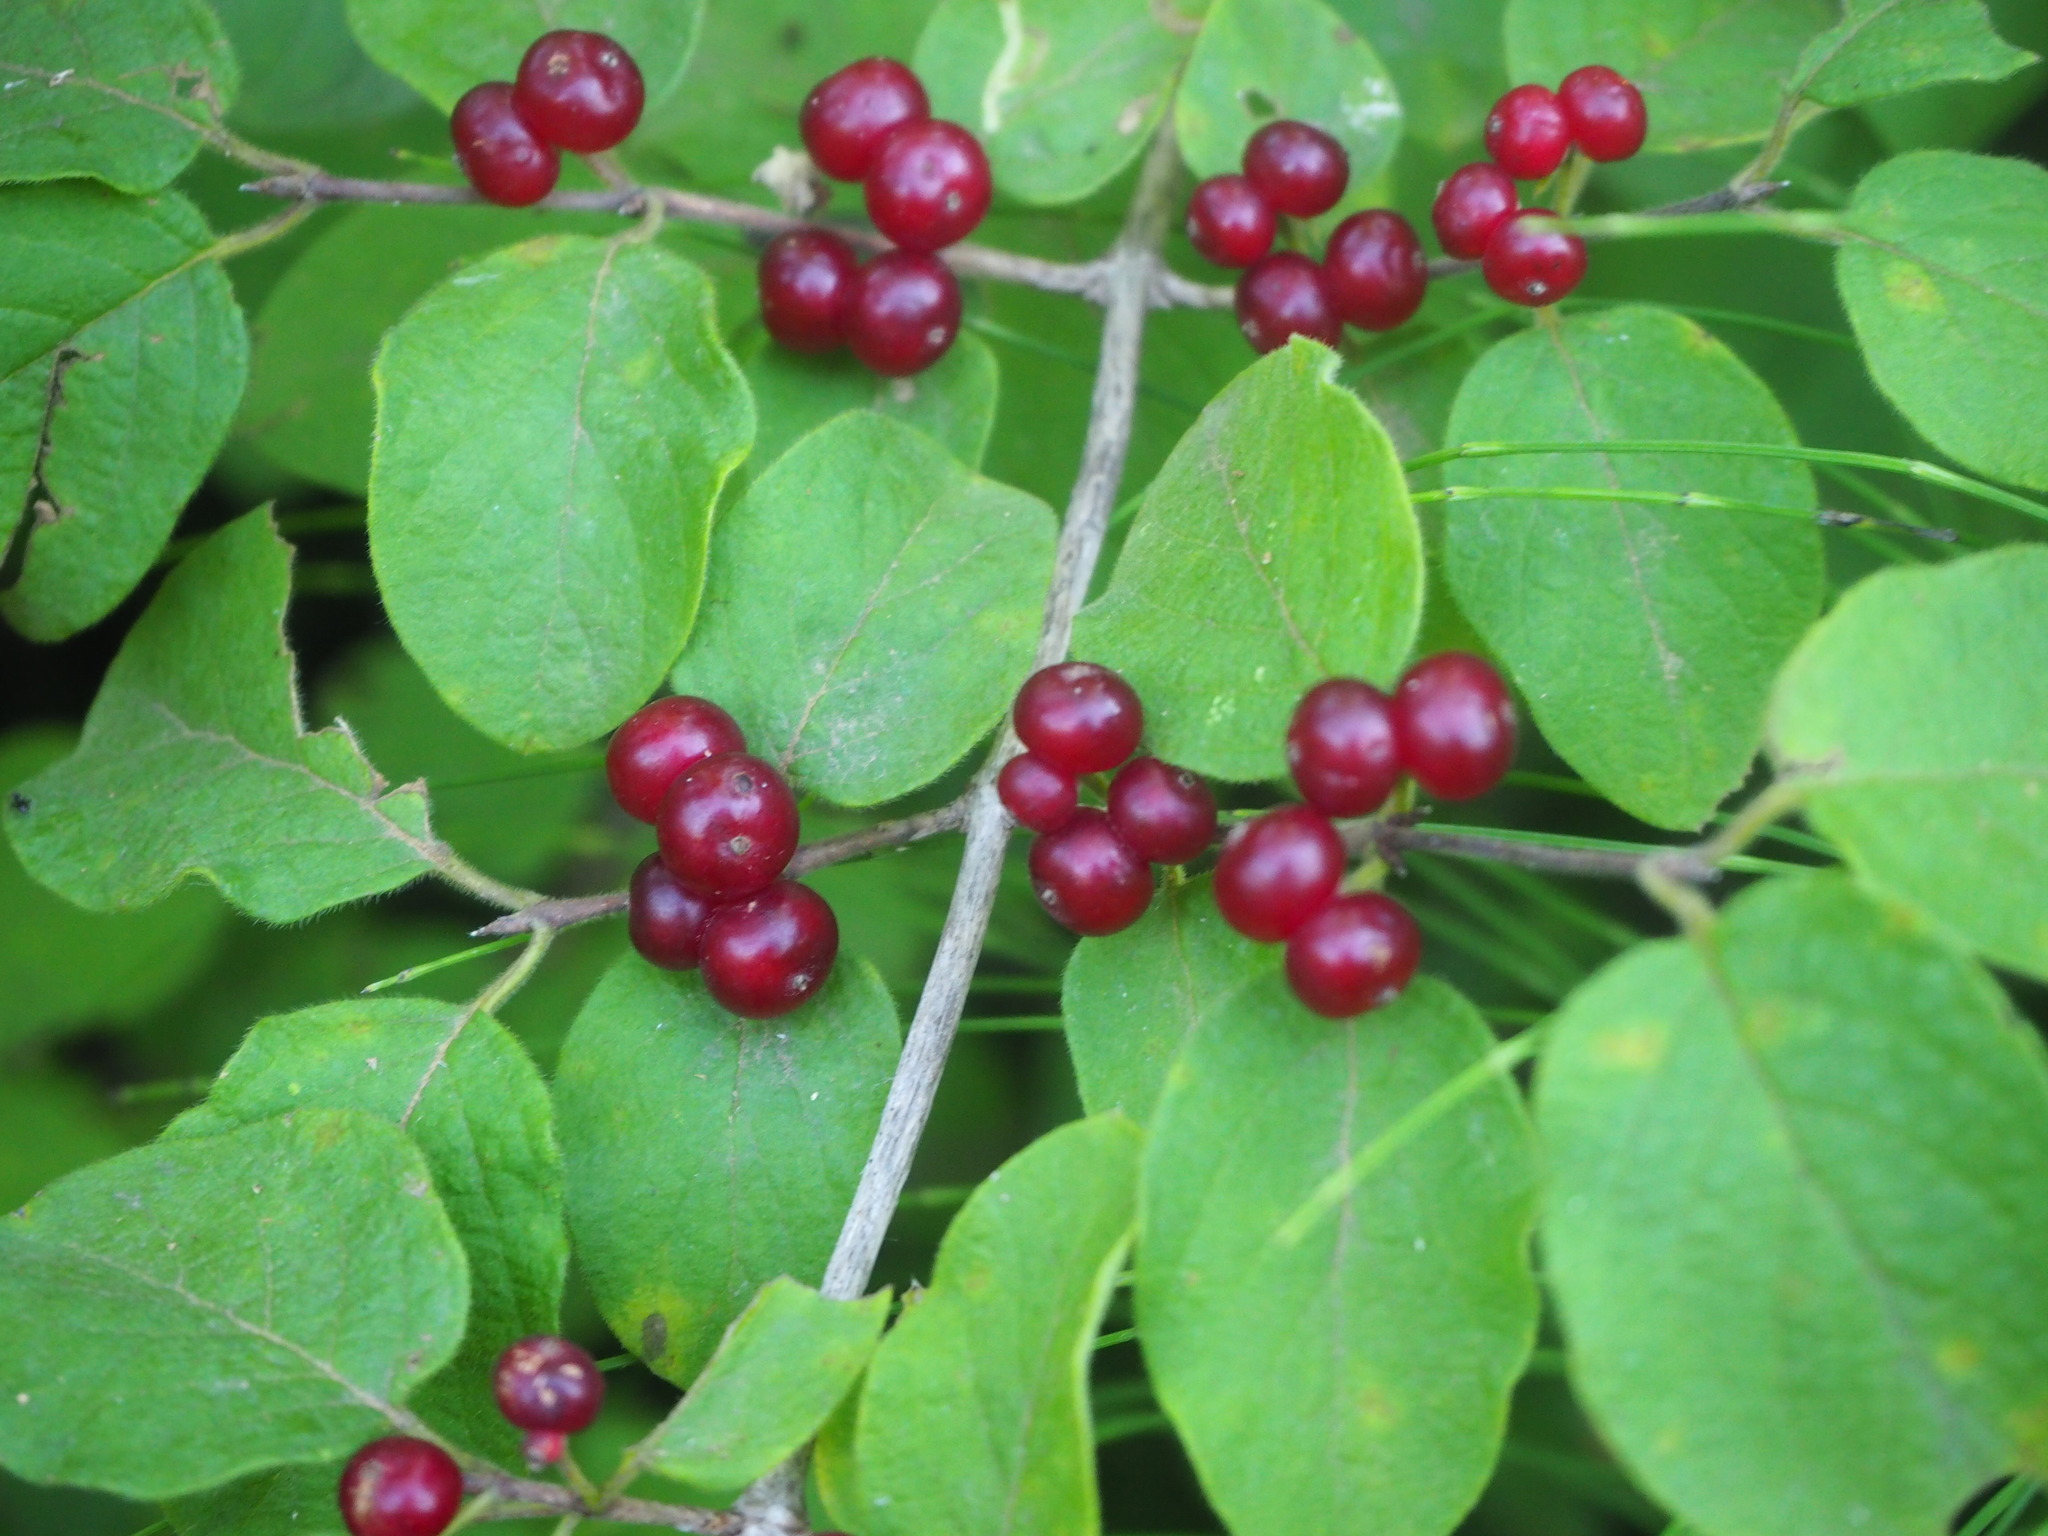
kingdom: Plantae
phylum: Tracheophyta
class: Magnoliopsida
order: Dipsacales
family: Caprifoliaceae
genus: Lonicera
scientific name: Lonicera xylosteum
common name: Fly honeysuckle
